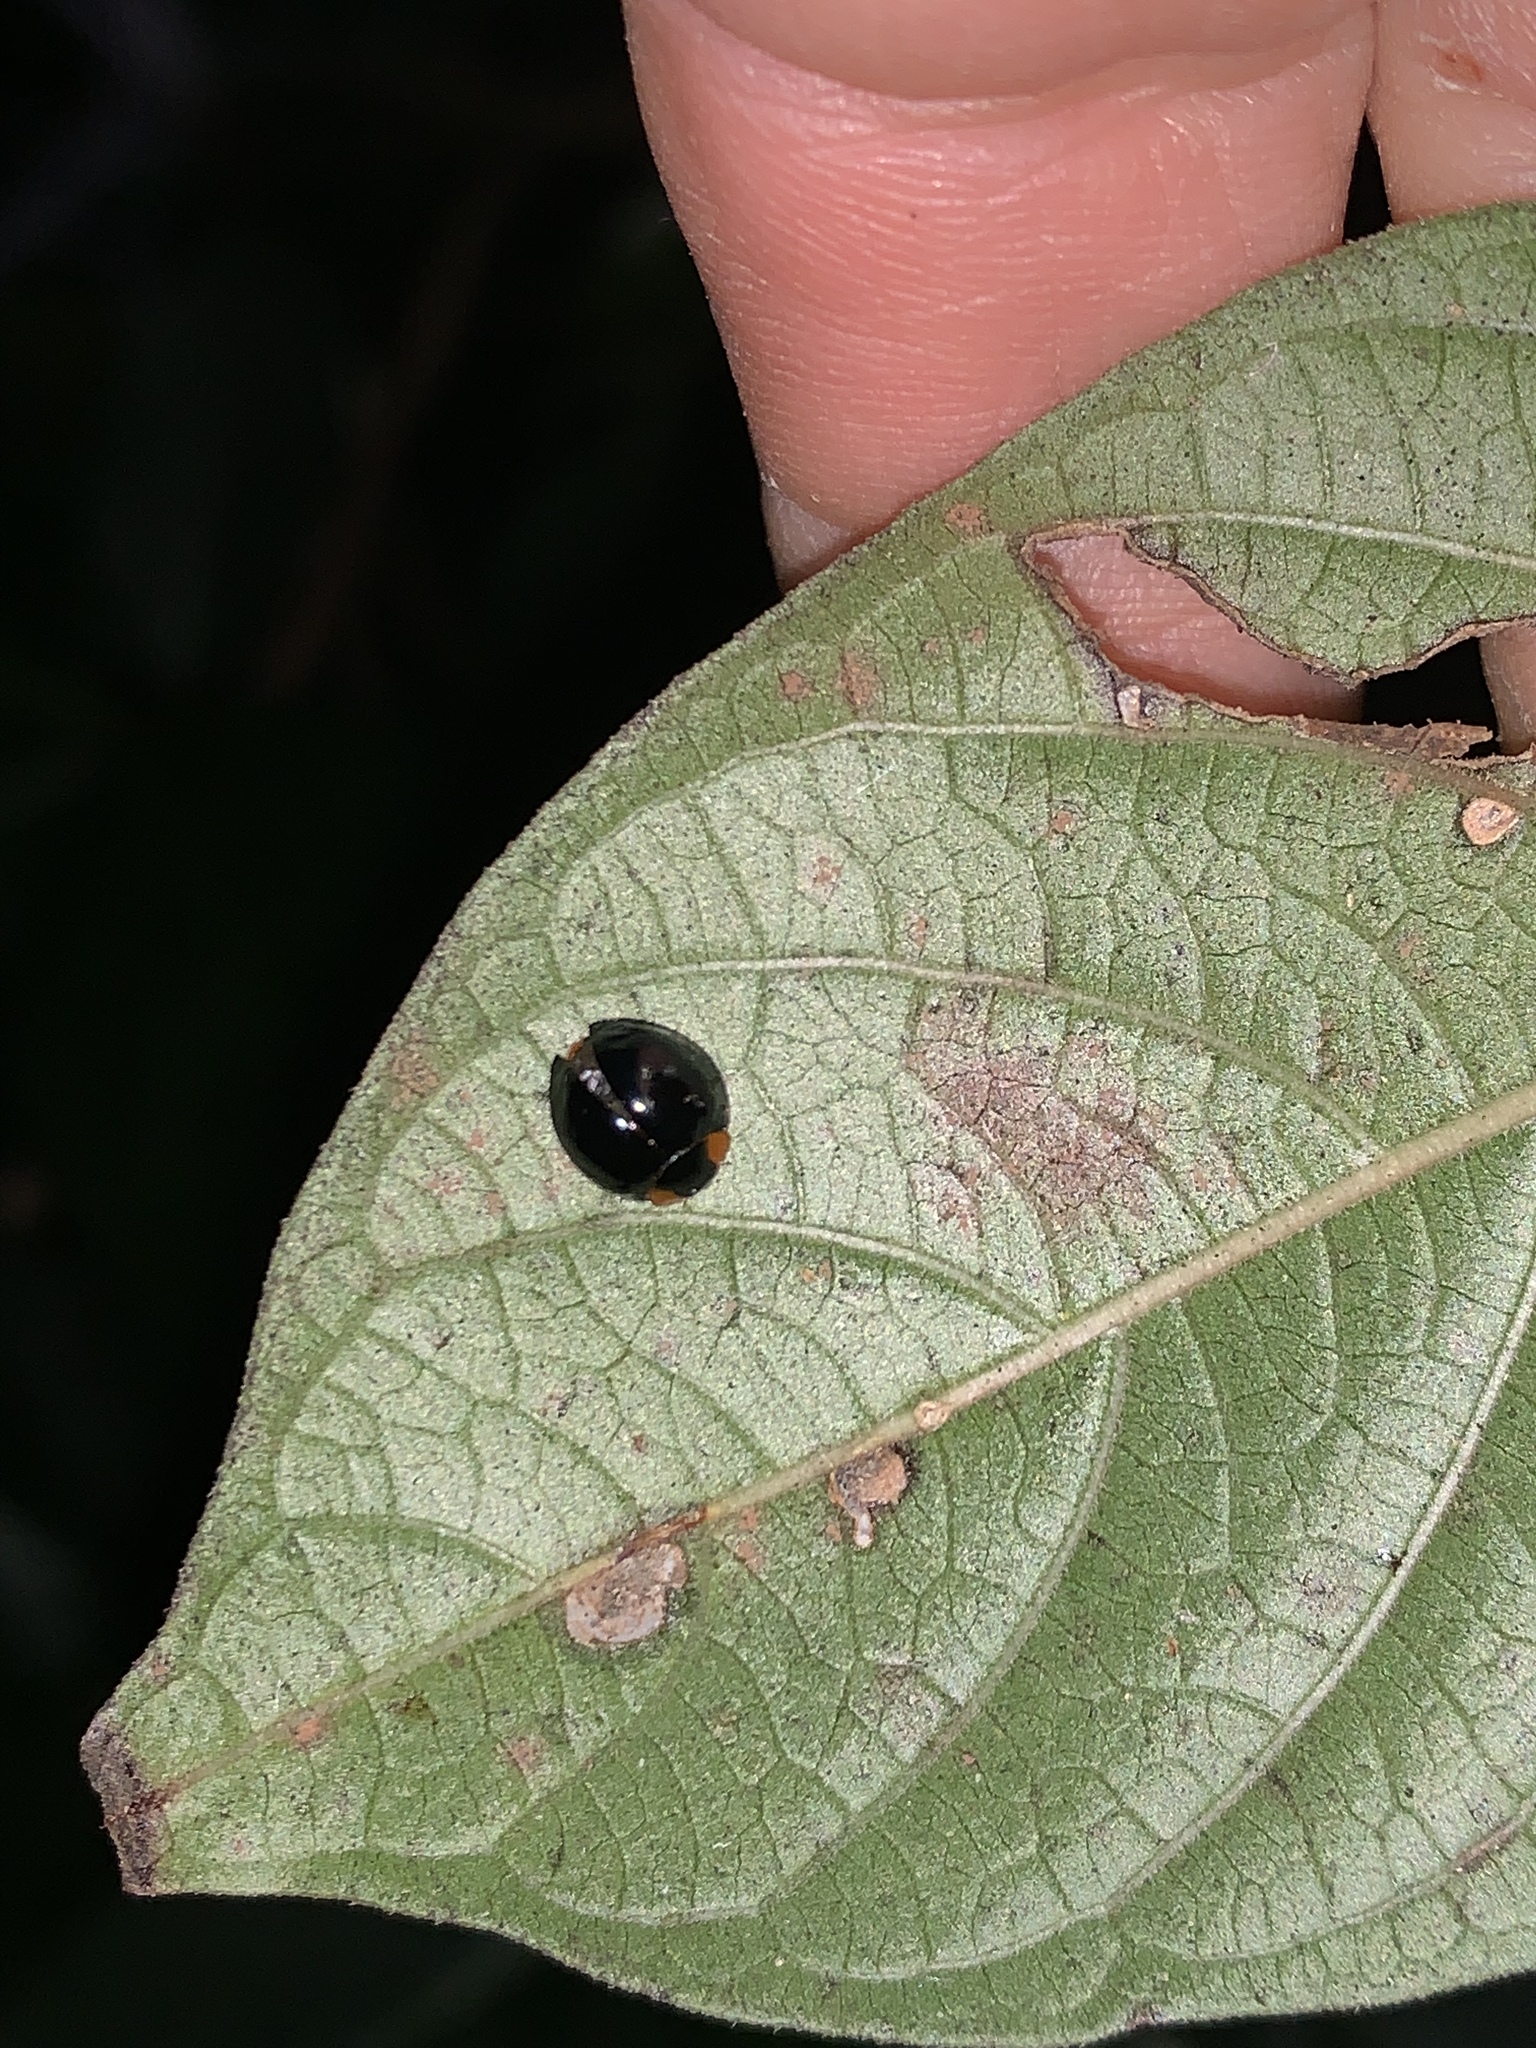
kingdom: Animalia
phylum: Arthropoda
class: Insecta
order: Coleoptera
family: Coccinellidae
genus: Curinus
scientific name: Curinus coeruleus
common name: Ladybird beetle
